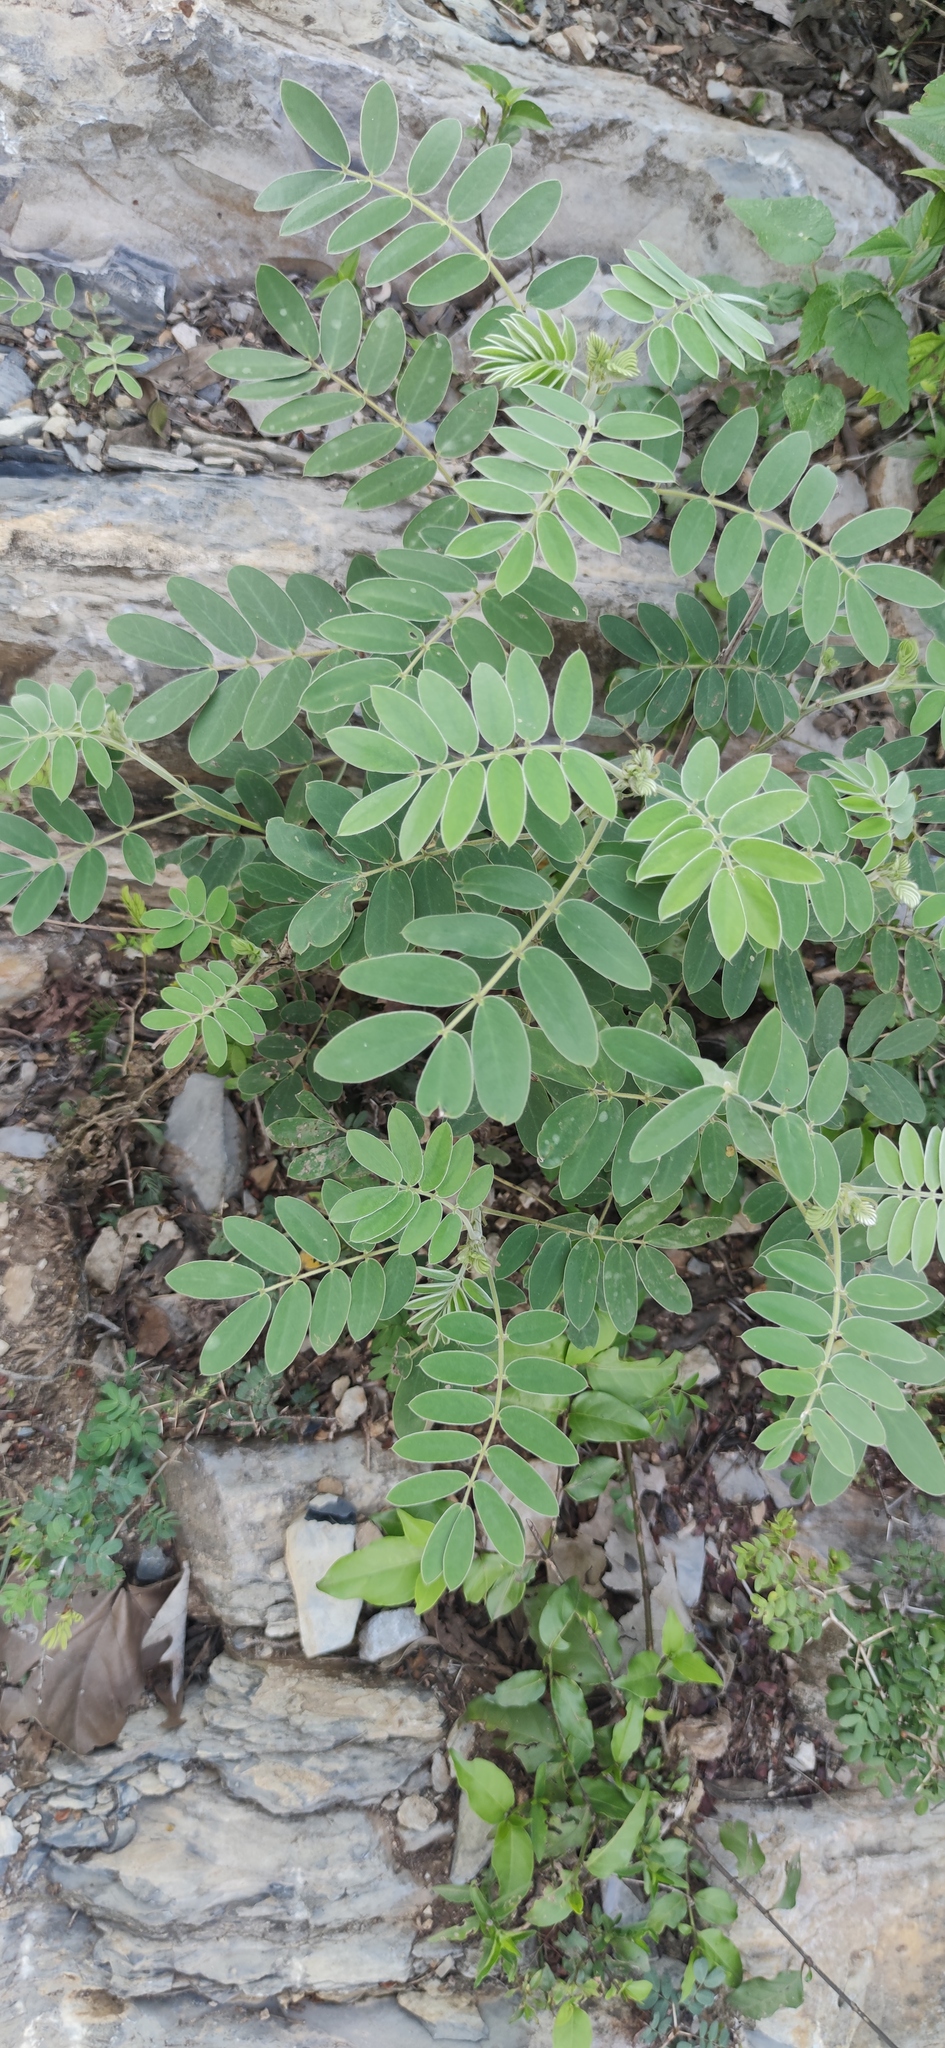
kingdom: Plantae
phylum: Tracheophyta
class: Magnoliopsida
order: Fabales
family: Fabaceae
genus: Senna
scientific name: Senna lindheimeriana
